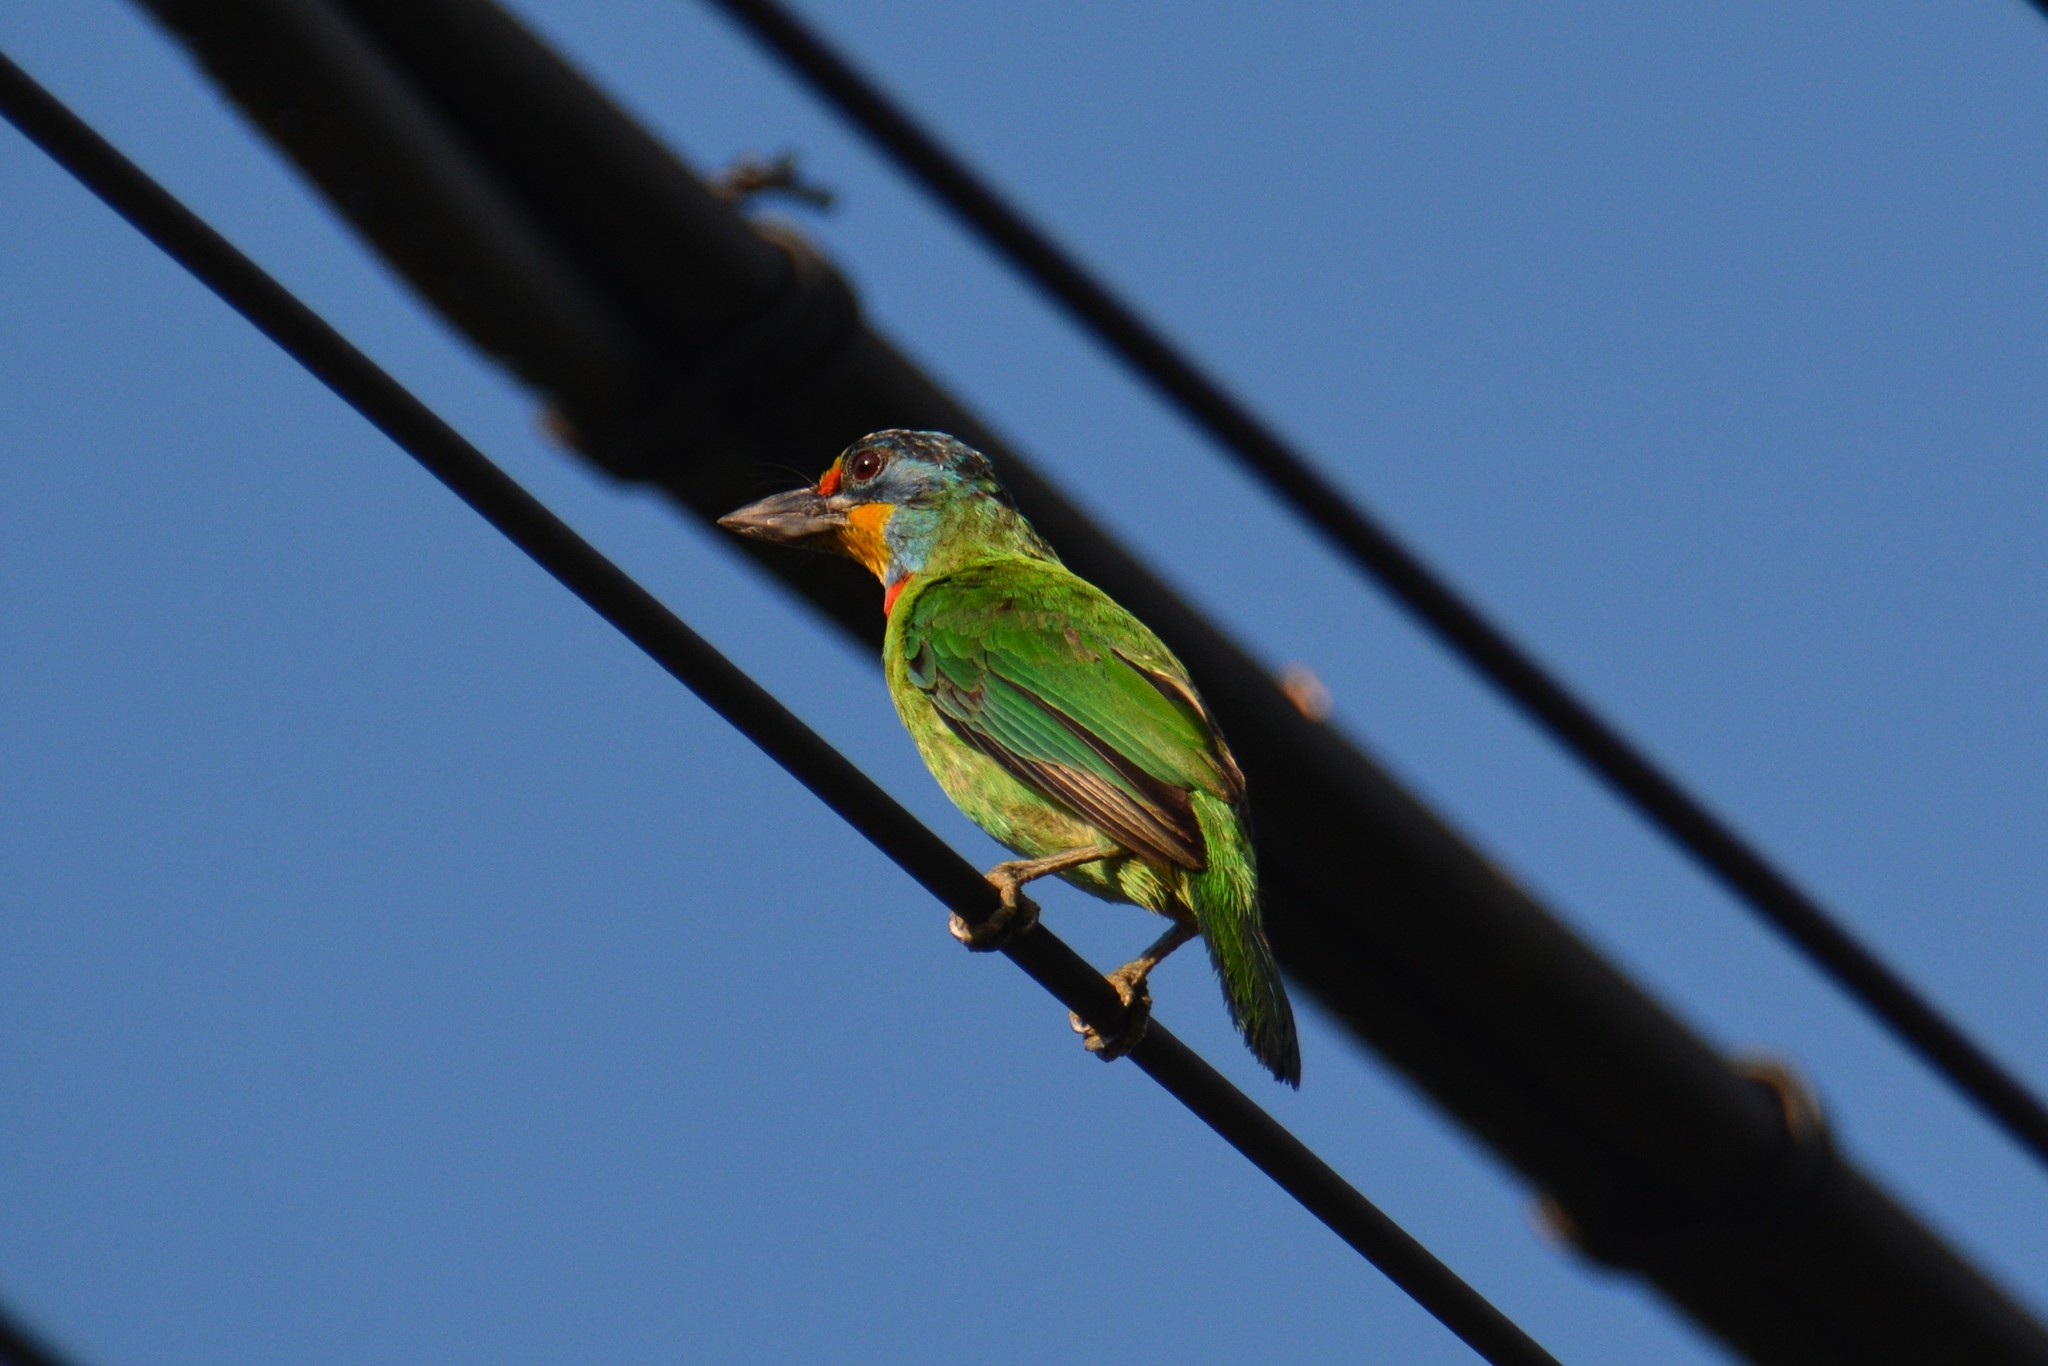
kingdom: Animalia
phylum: Chordata
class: Aves
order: Piciformes
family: Megalaimidae
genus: Psilopogon
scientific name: Psilopogon nuchalis
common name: Taiwan barbet
